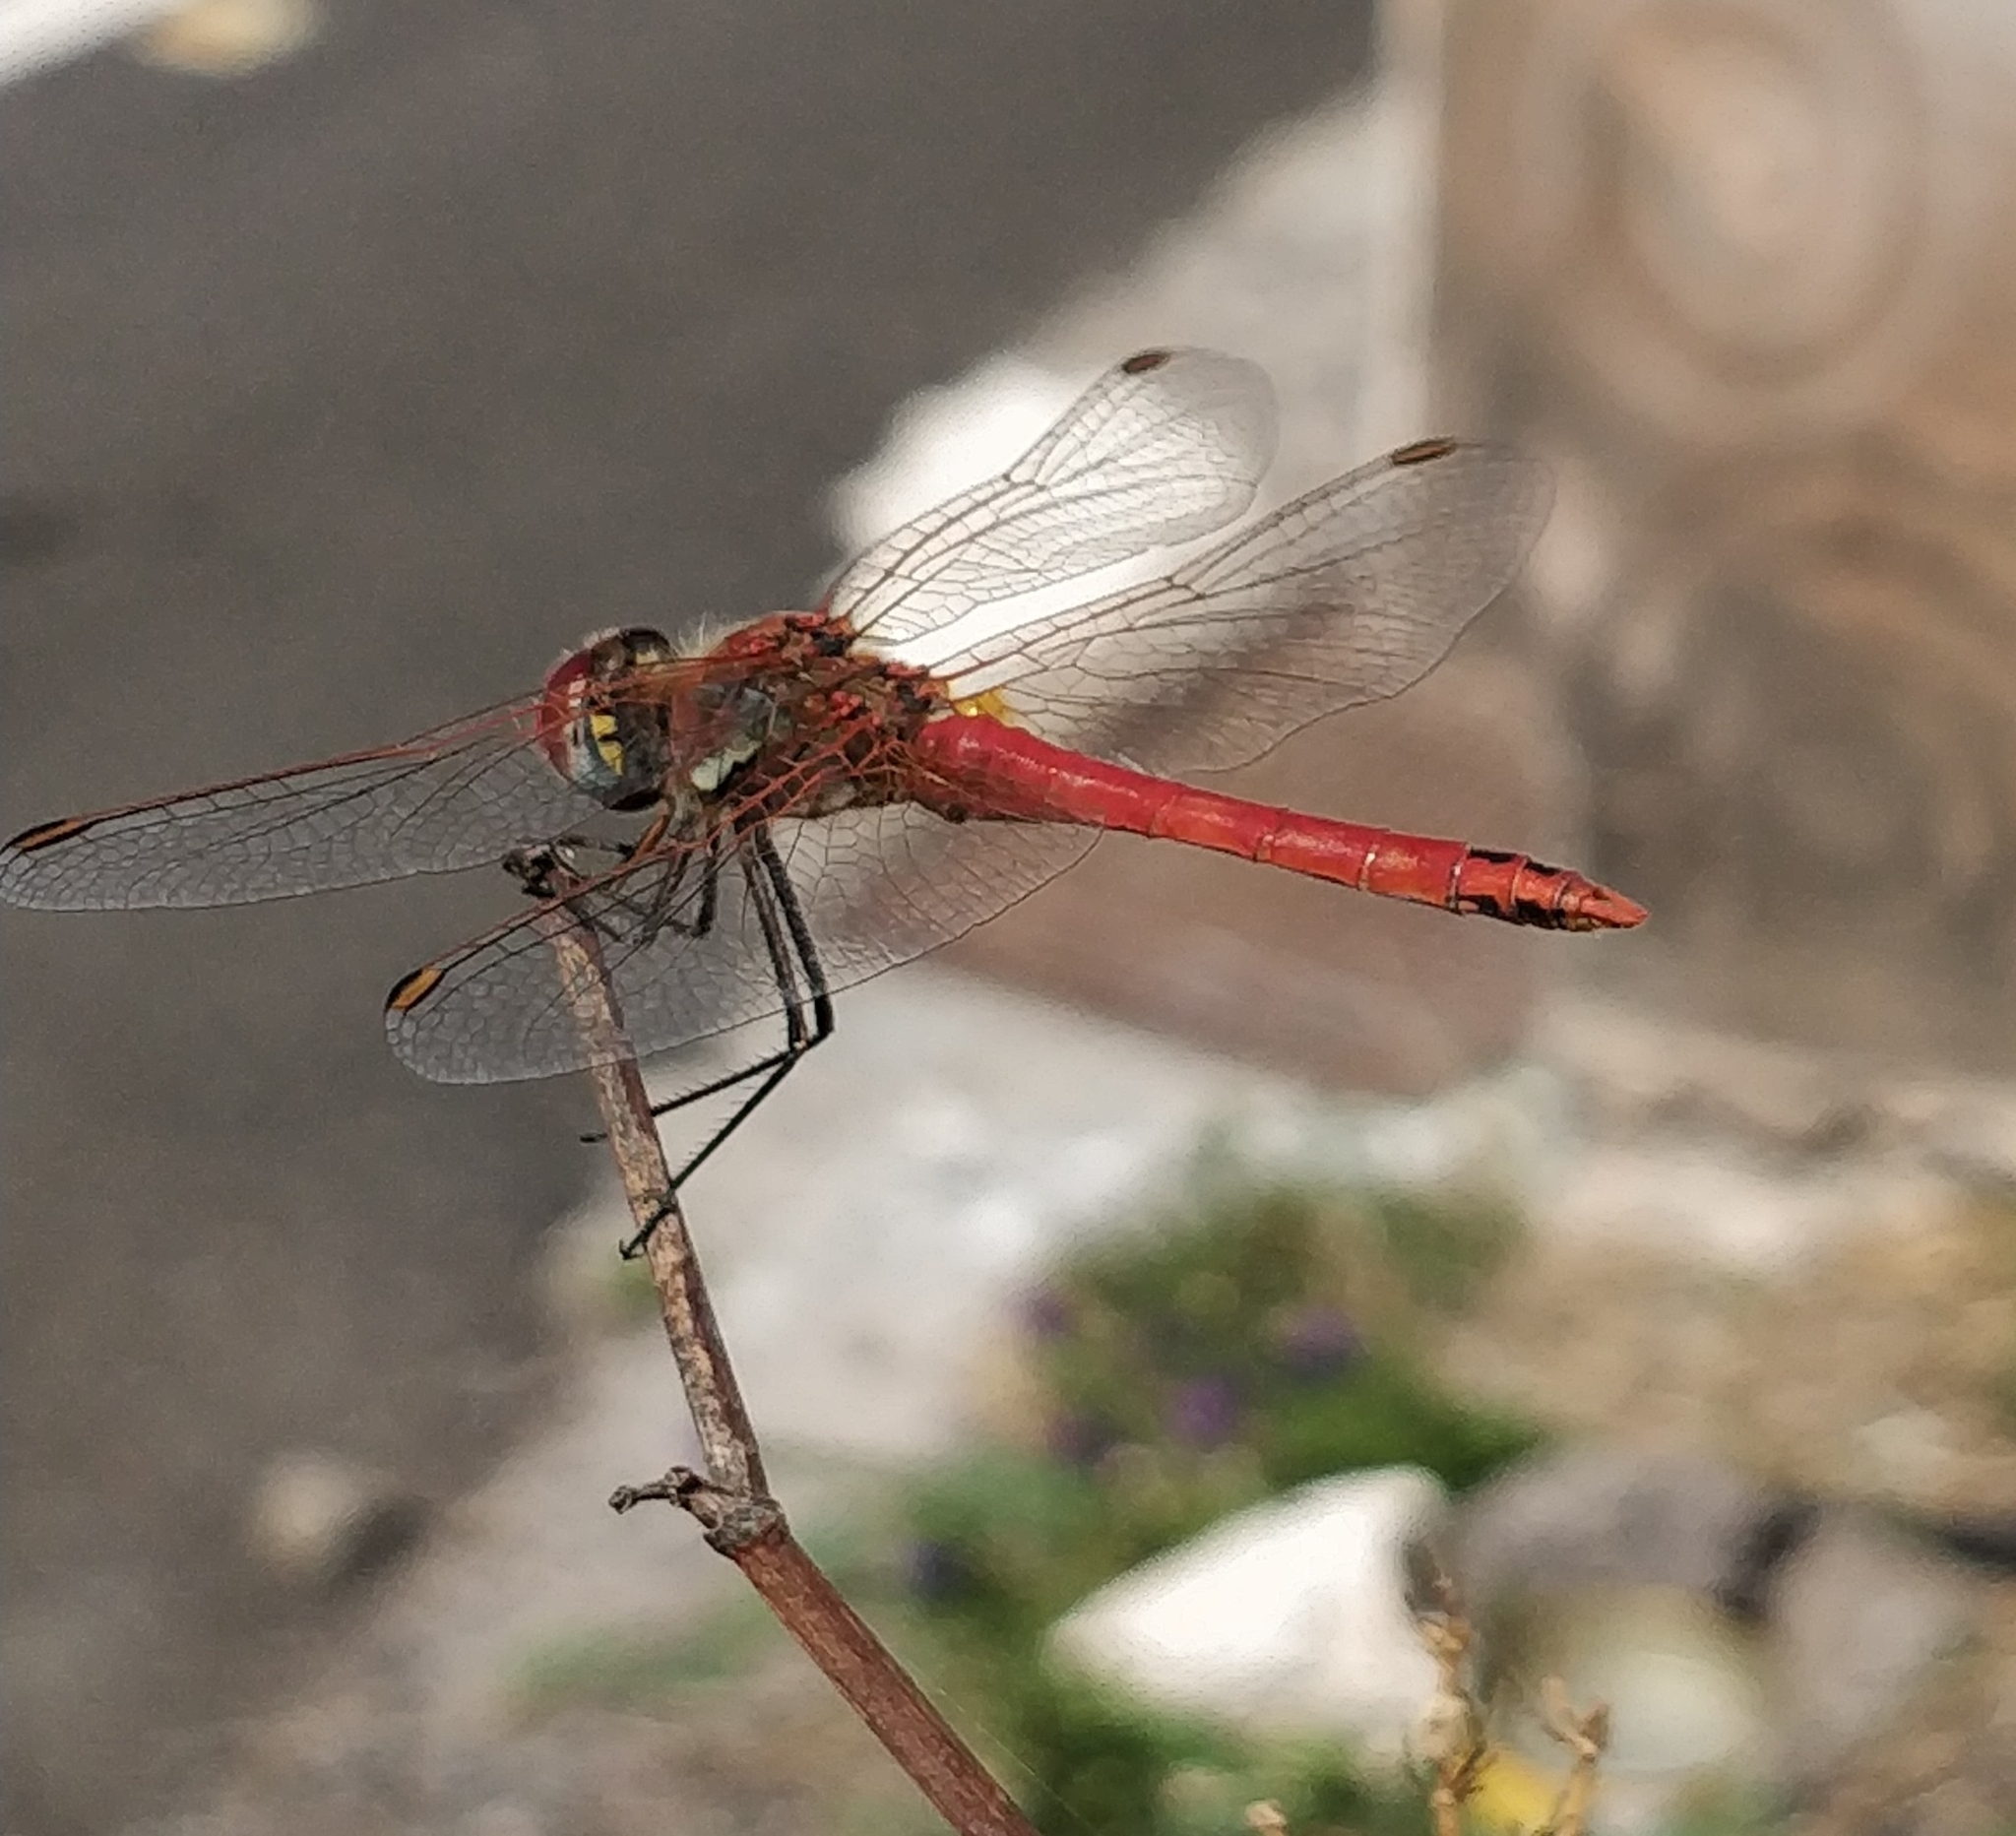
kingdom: Animalia
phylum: Arthropoda
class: Insecta
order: Odonata
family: Libellulidae
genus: Sympetrum
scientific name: Sympetrum fonscolombii
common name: Red-veined darter
